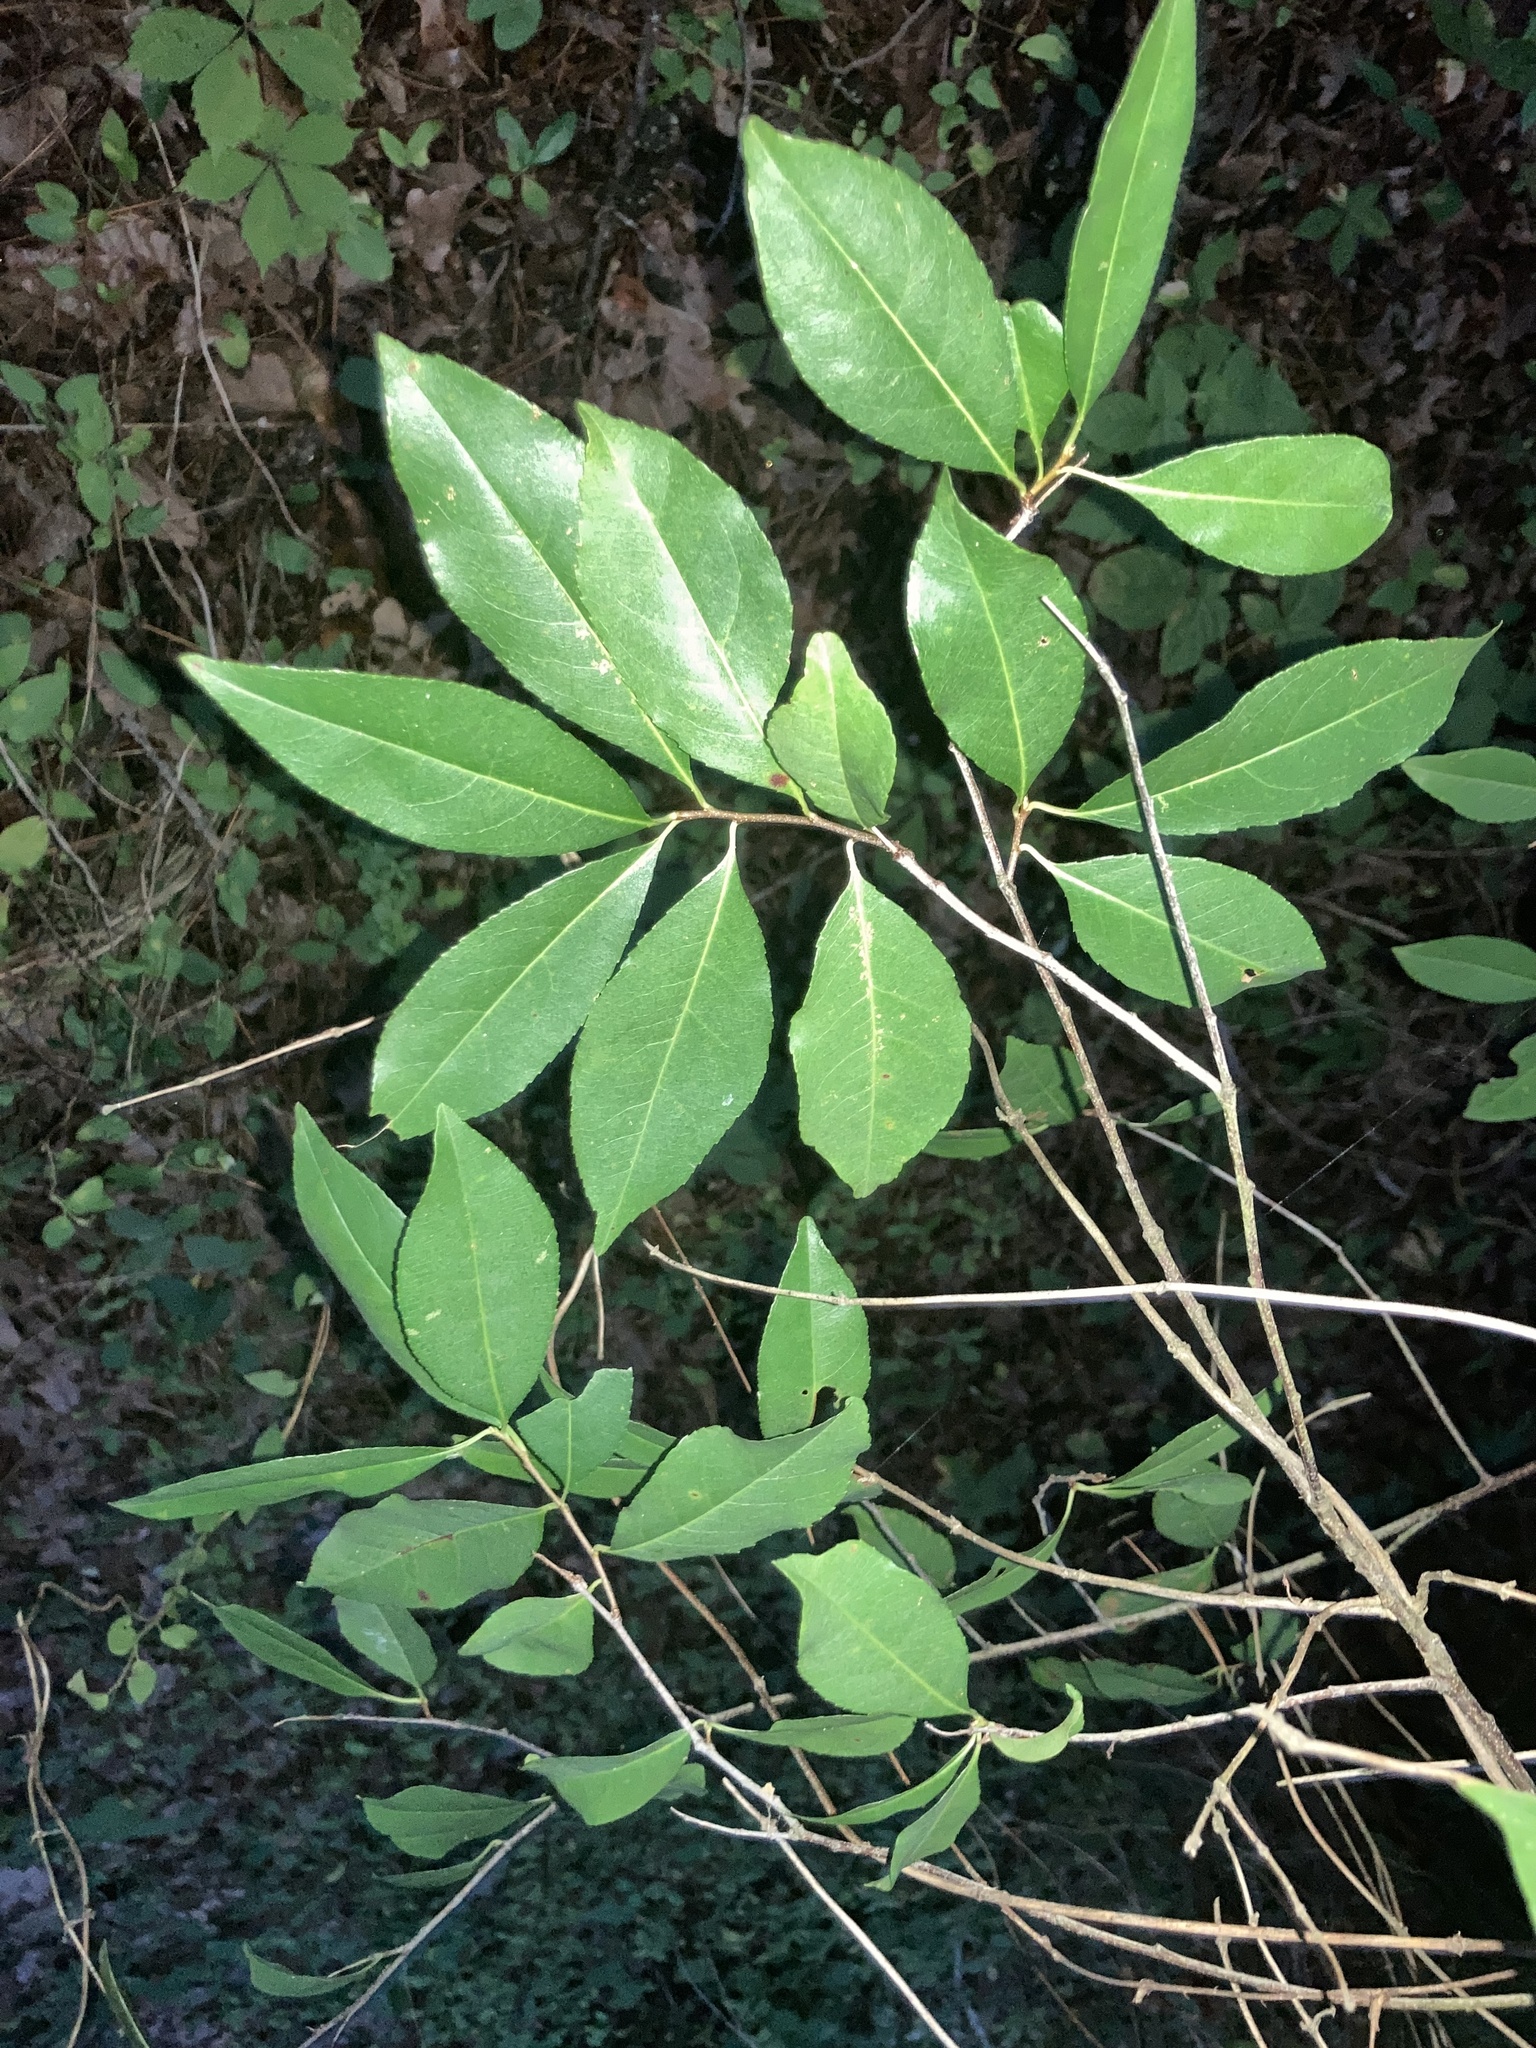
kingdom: Plantae
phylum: Tracheophyta
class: Magnoliopsida
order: Rosales
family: Rosaceae
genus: Prunus
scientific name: Prunus serotina
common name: Black cherry
